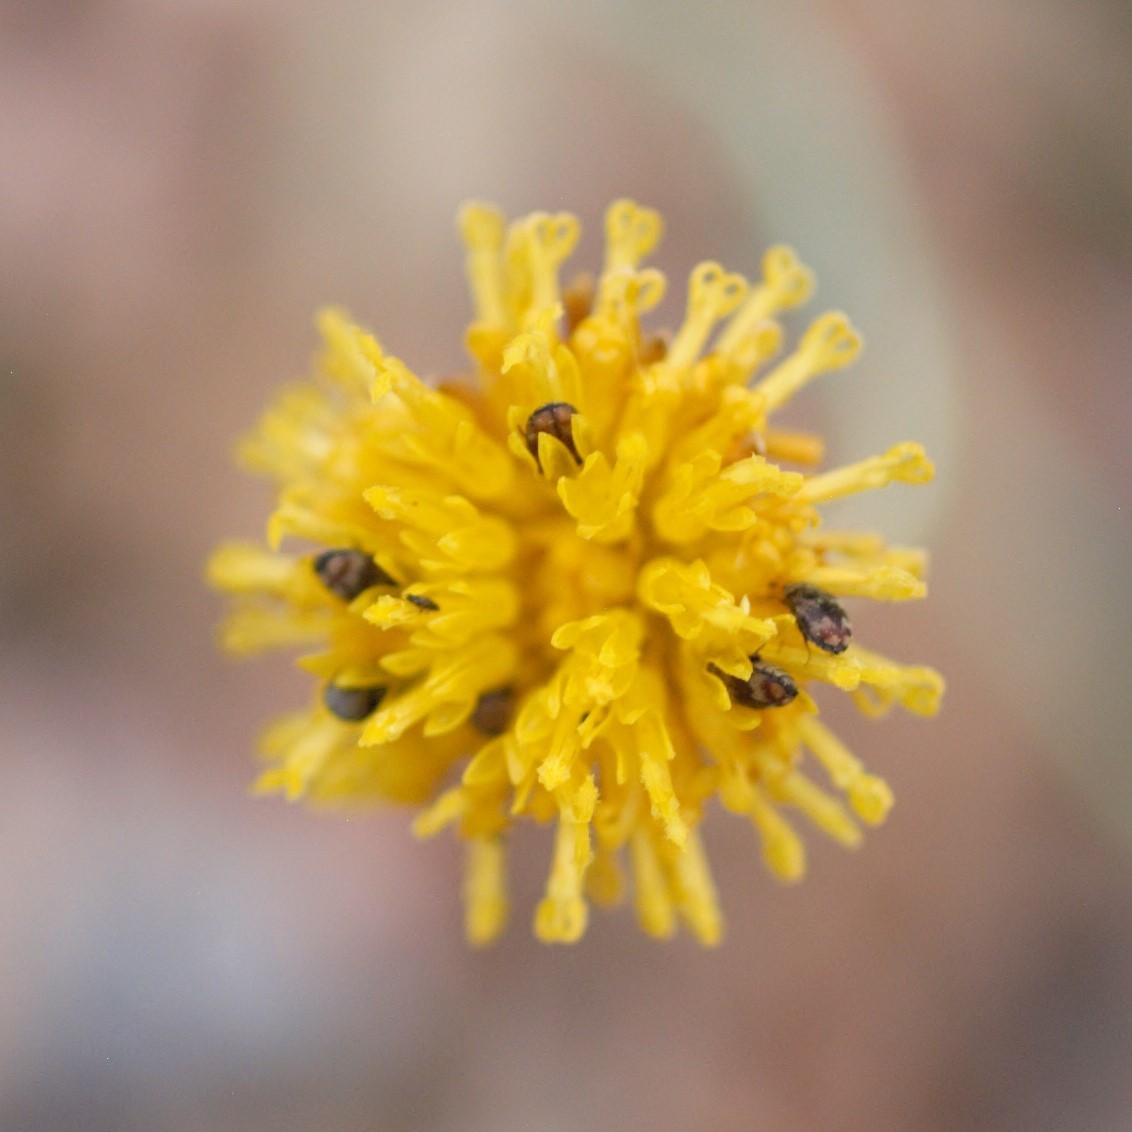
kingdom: Animalia
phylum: Arthropoda
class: Insecta
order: Coleoptera
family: Dermestidae
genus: Cryptorhopalum
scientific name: Cryptorhopalum
